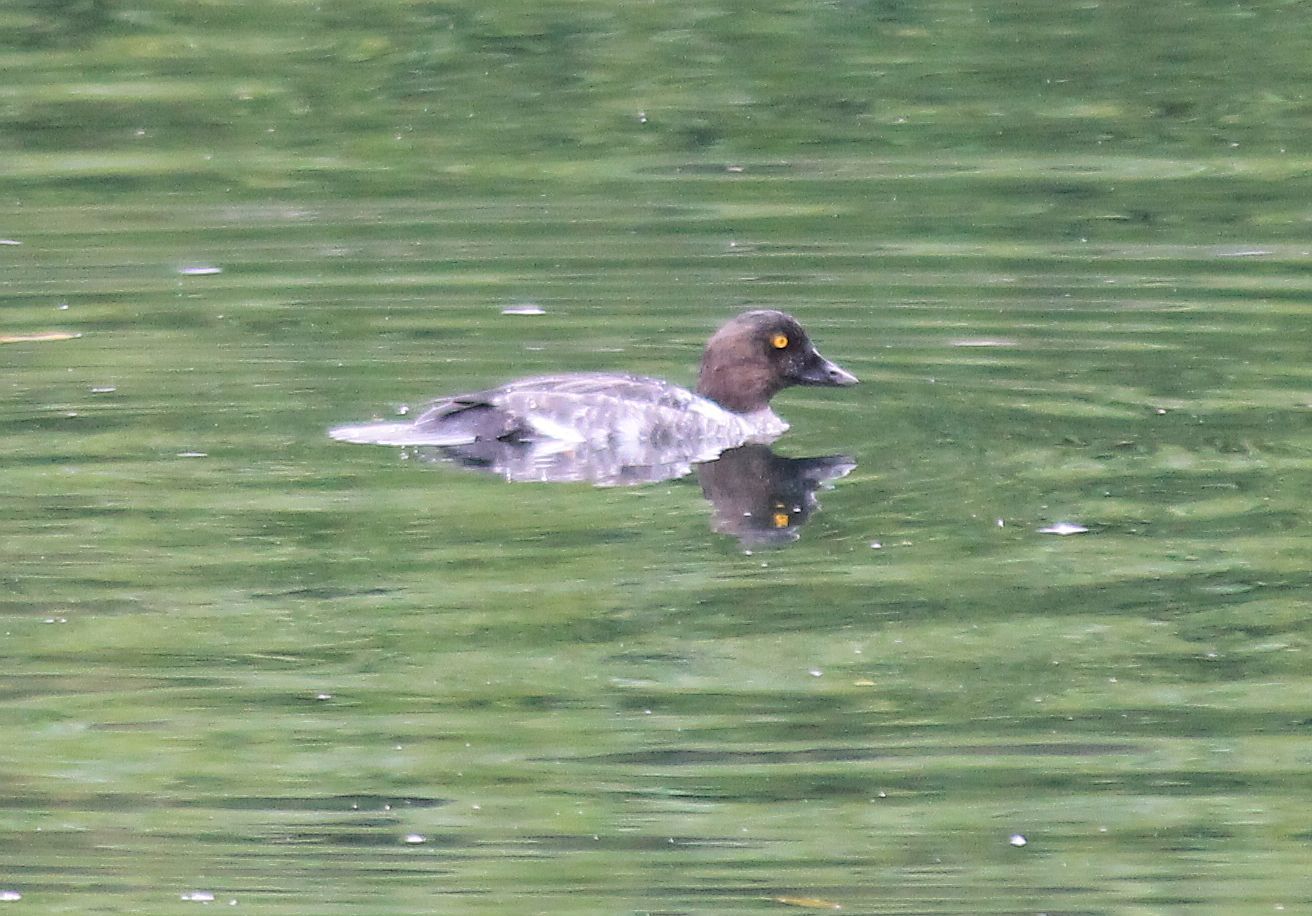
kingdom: Animalia
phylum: Chordata
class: Aves
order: Anseriformes
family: Anatidae
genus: Bucephala
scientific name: Bucephala clangula
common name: Common goldeneye
